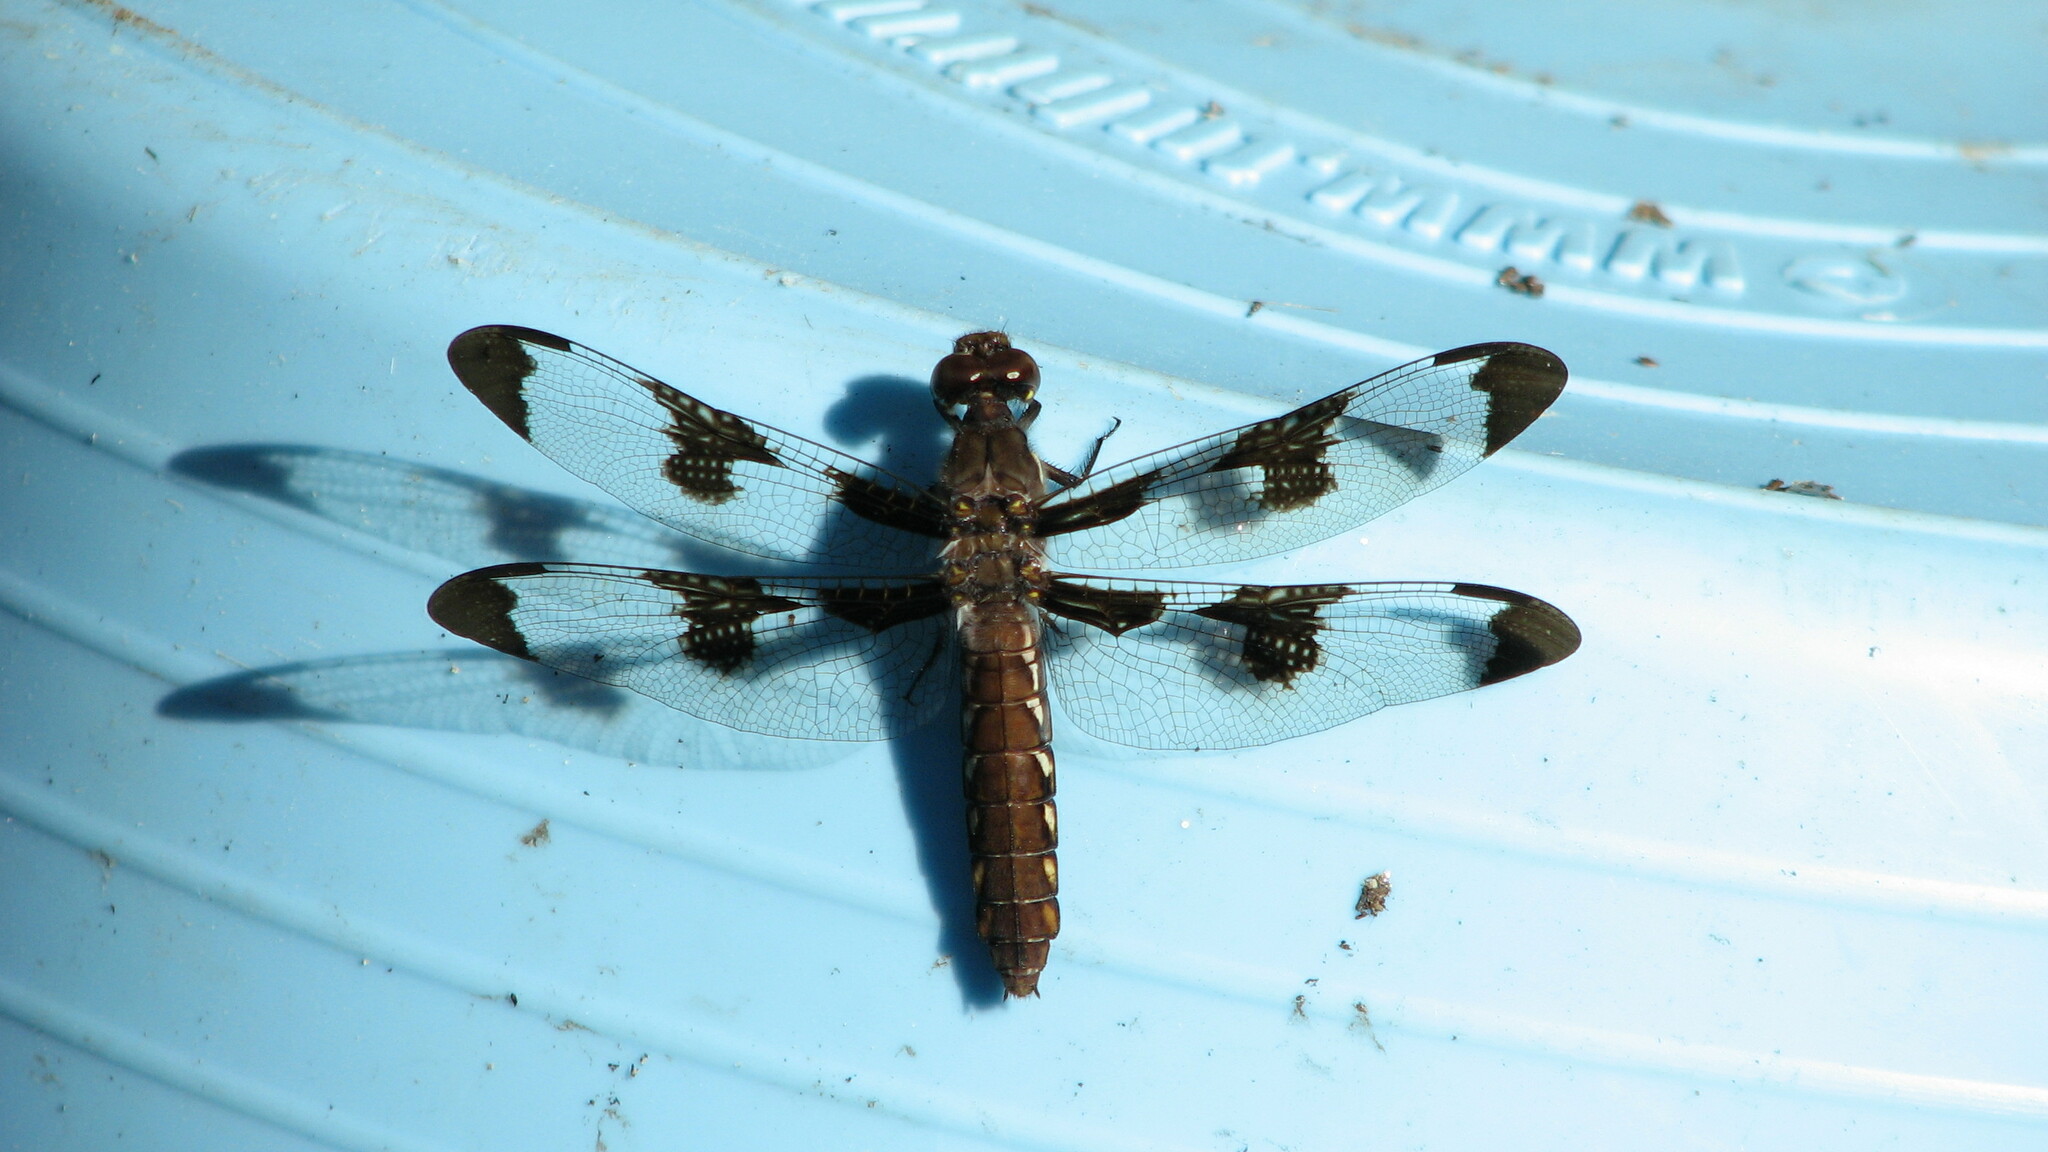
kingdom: Animalia
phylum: Arthropoda
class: Insecta
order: Odonata
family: Libellulidae
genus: Plathemis
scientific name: Plathemis lydia
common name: Common whitetail
